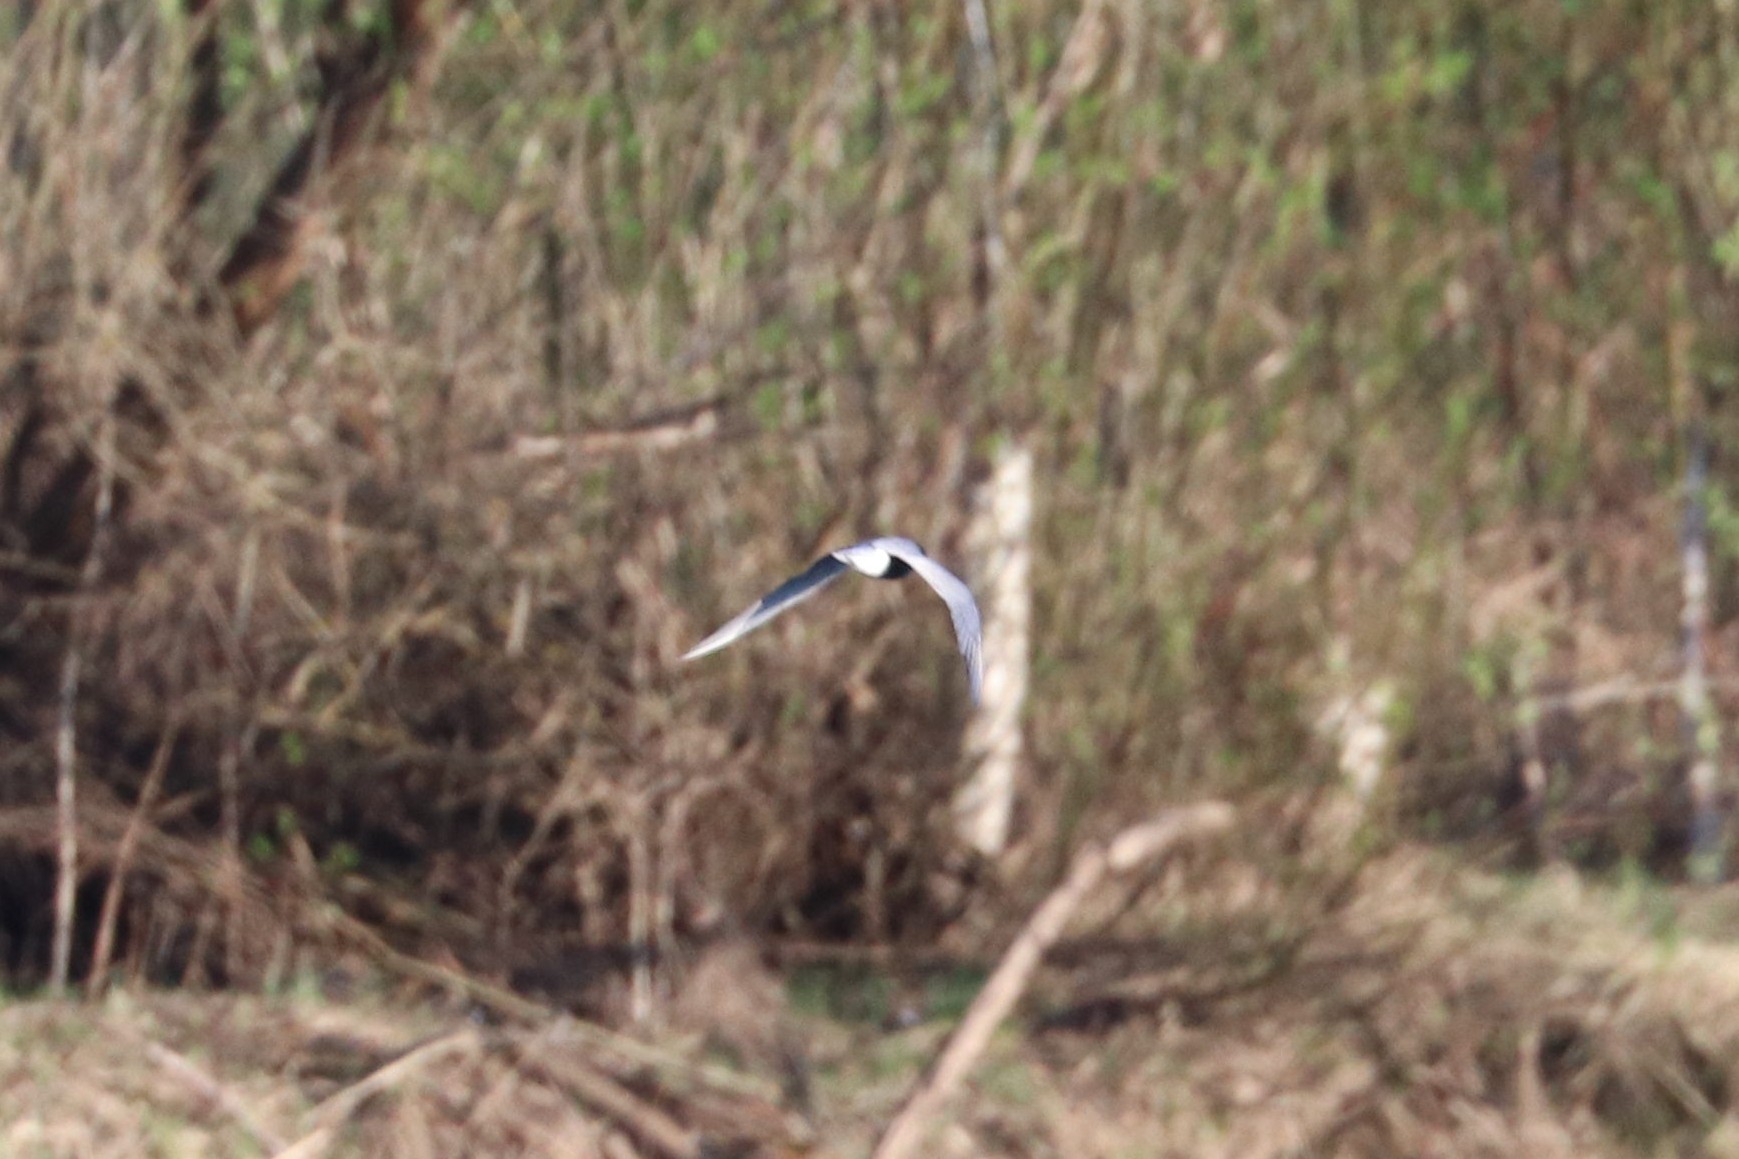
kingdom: Animalia
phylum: Chordata
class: Aves
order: Charadriiformes
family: Laridae
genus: Chlidonias
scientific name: Chlidonias niger
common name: Black tern
